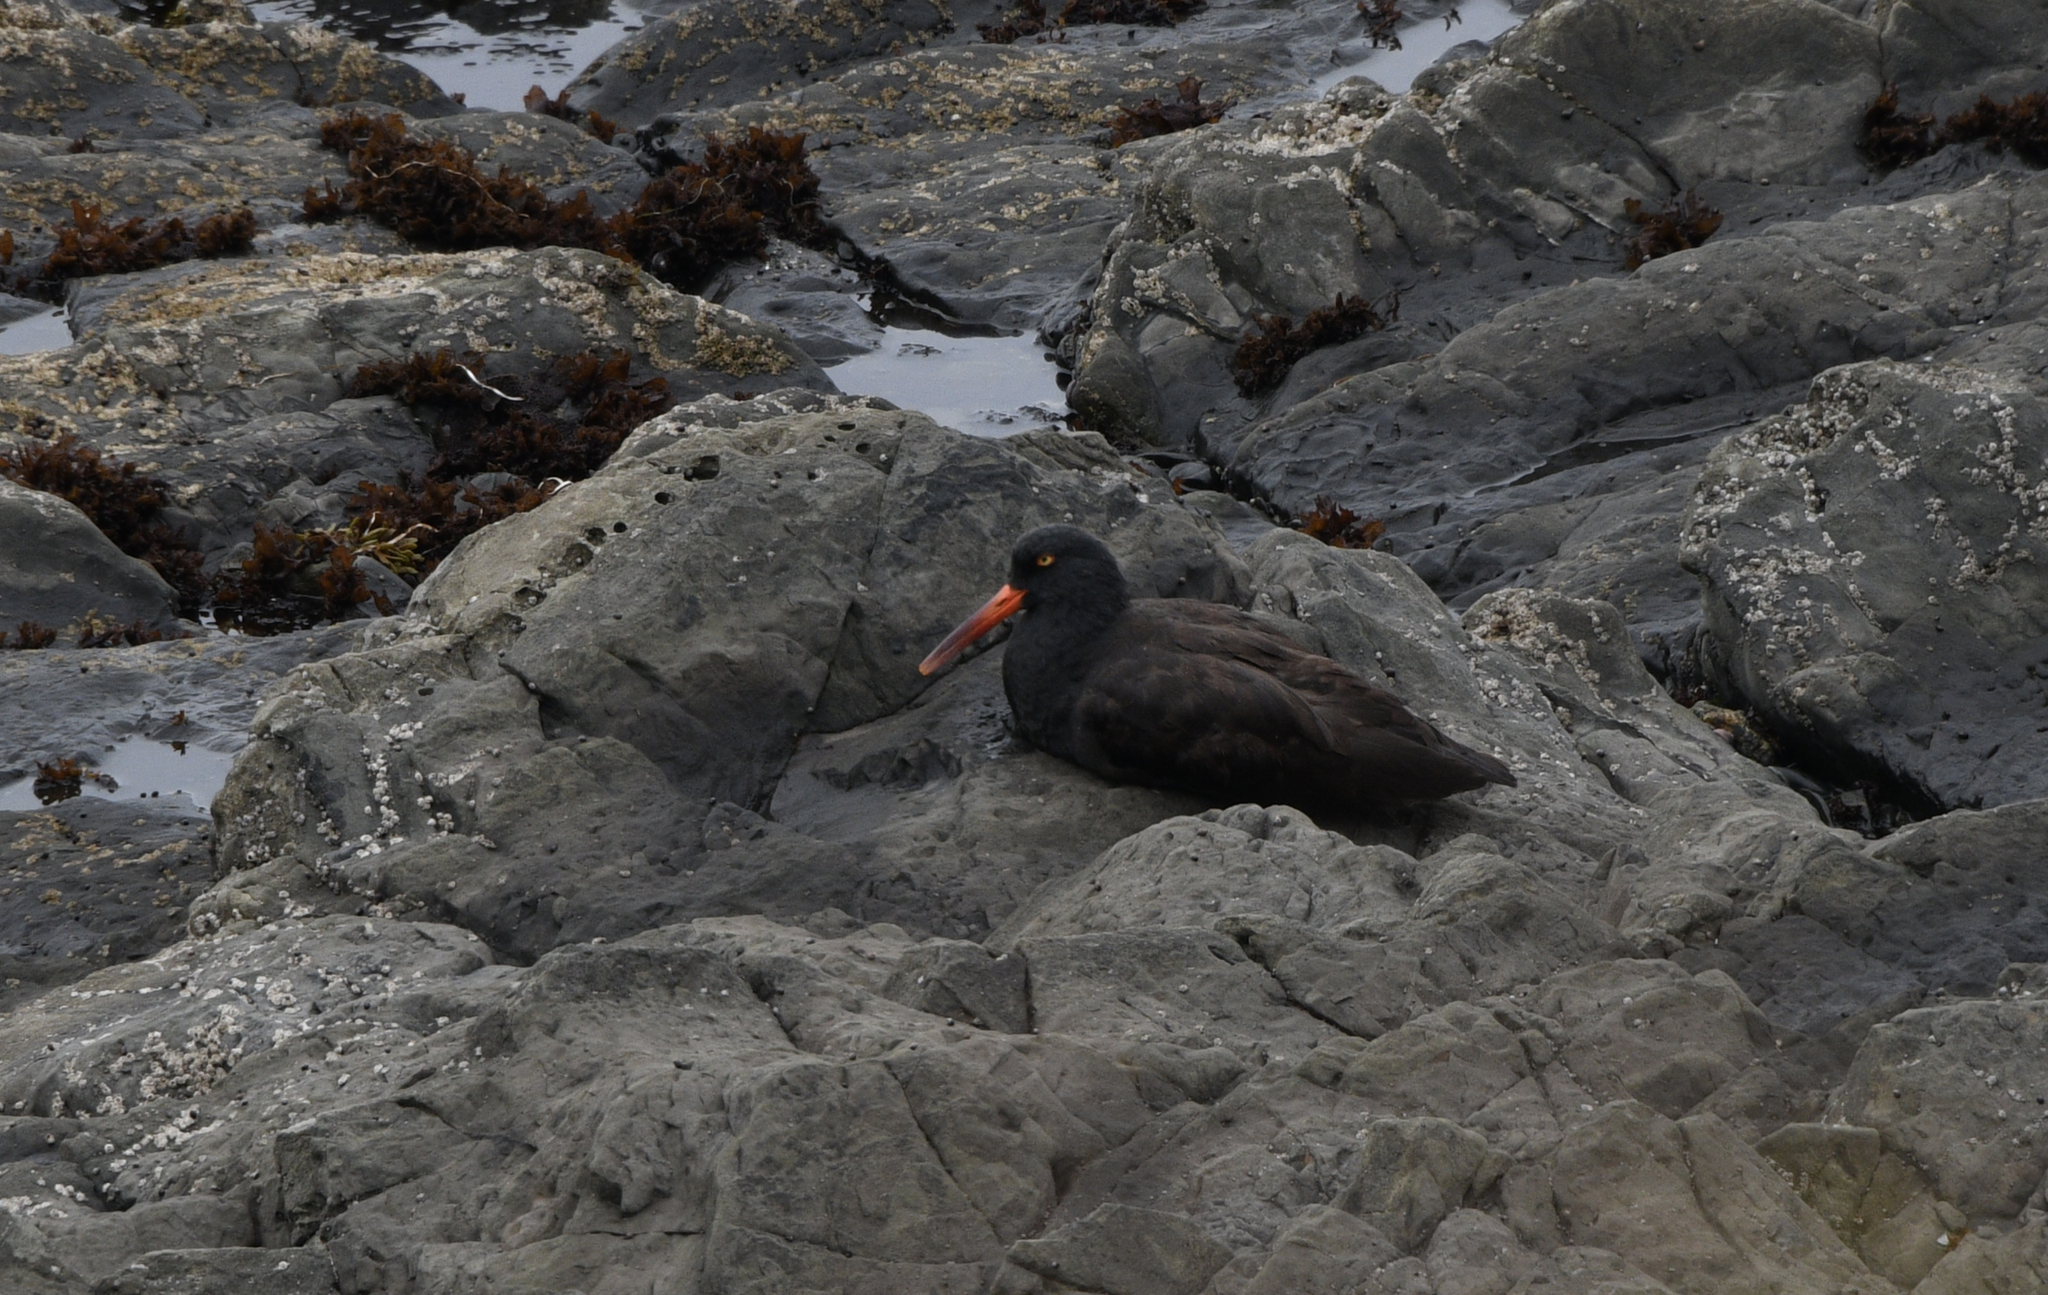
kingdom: Animalia
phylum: Chordata
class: Aves
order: Charadriiformes
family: Haematopodidae
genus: Haematopus
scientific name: Haematopus bachmani
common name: Black oystercatcher
